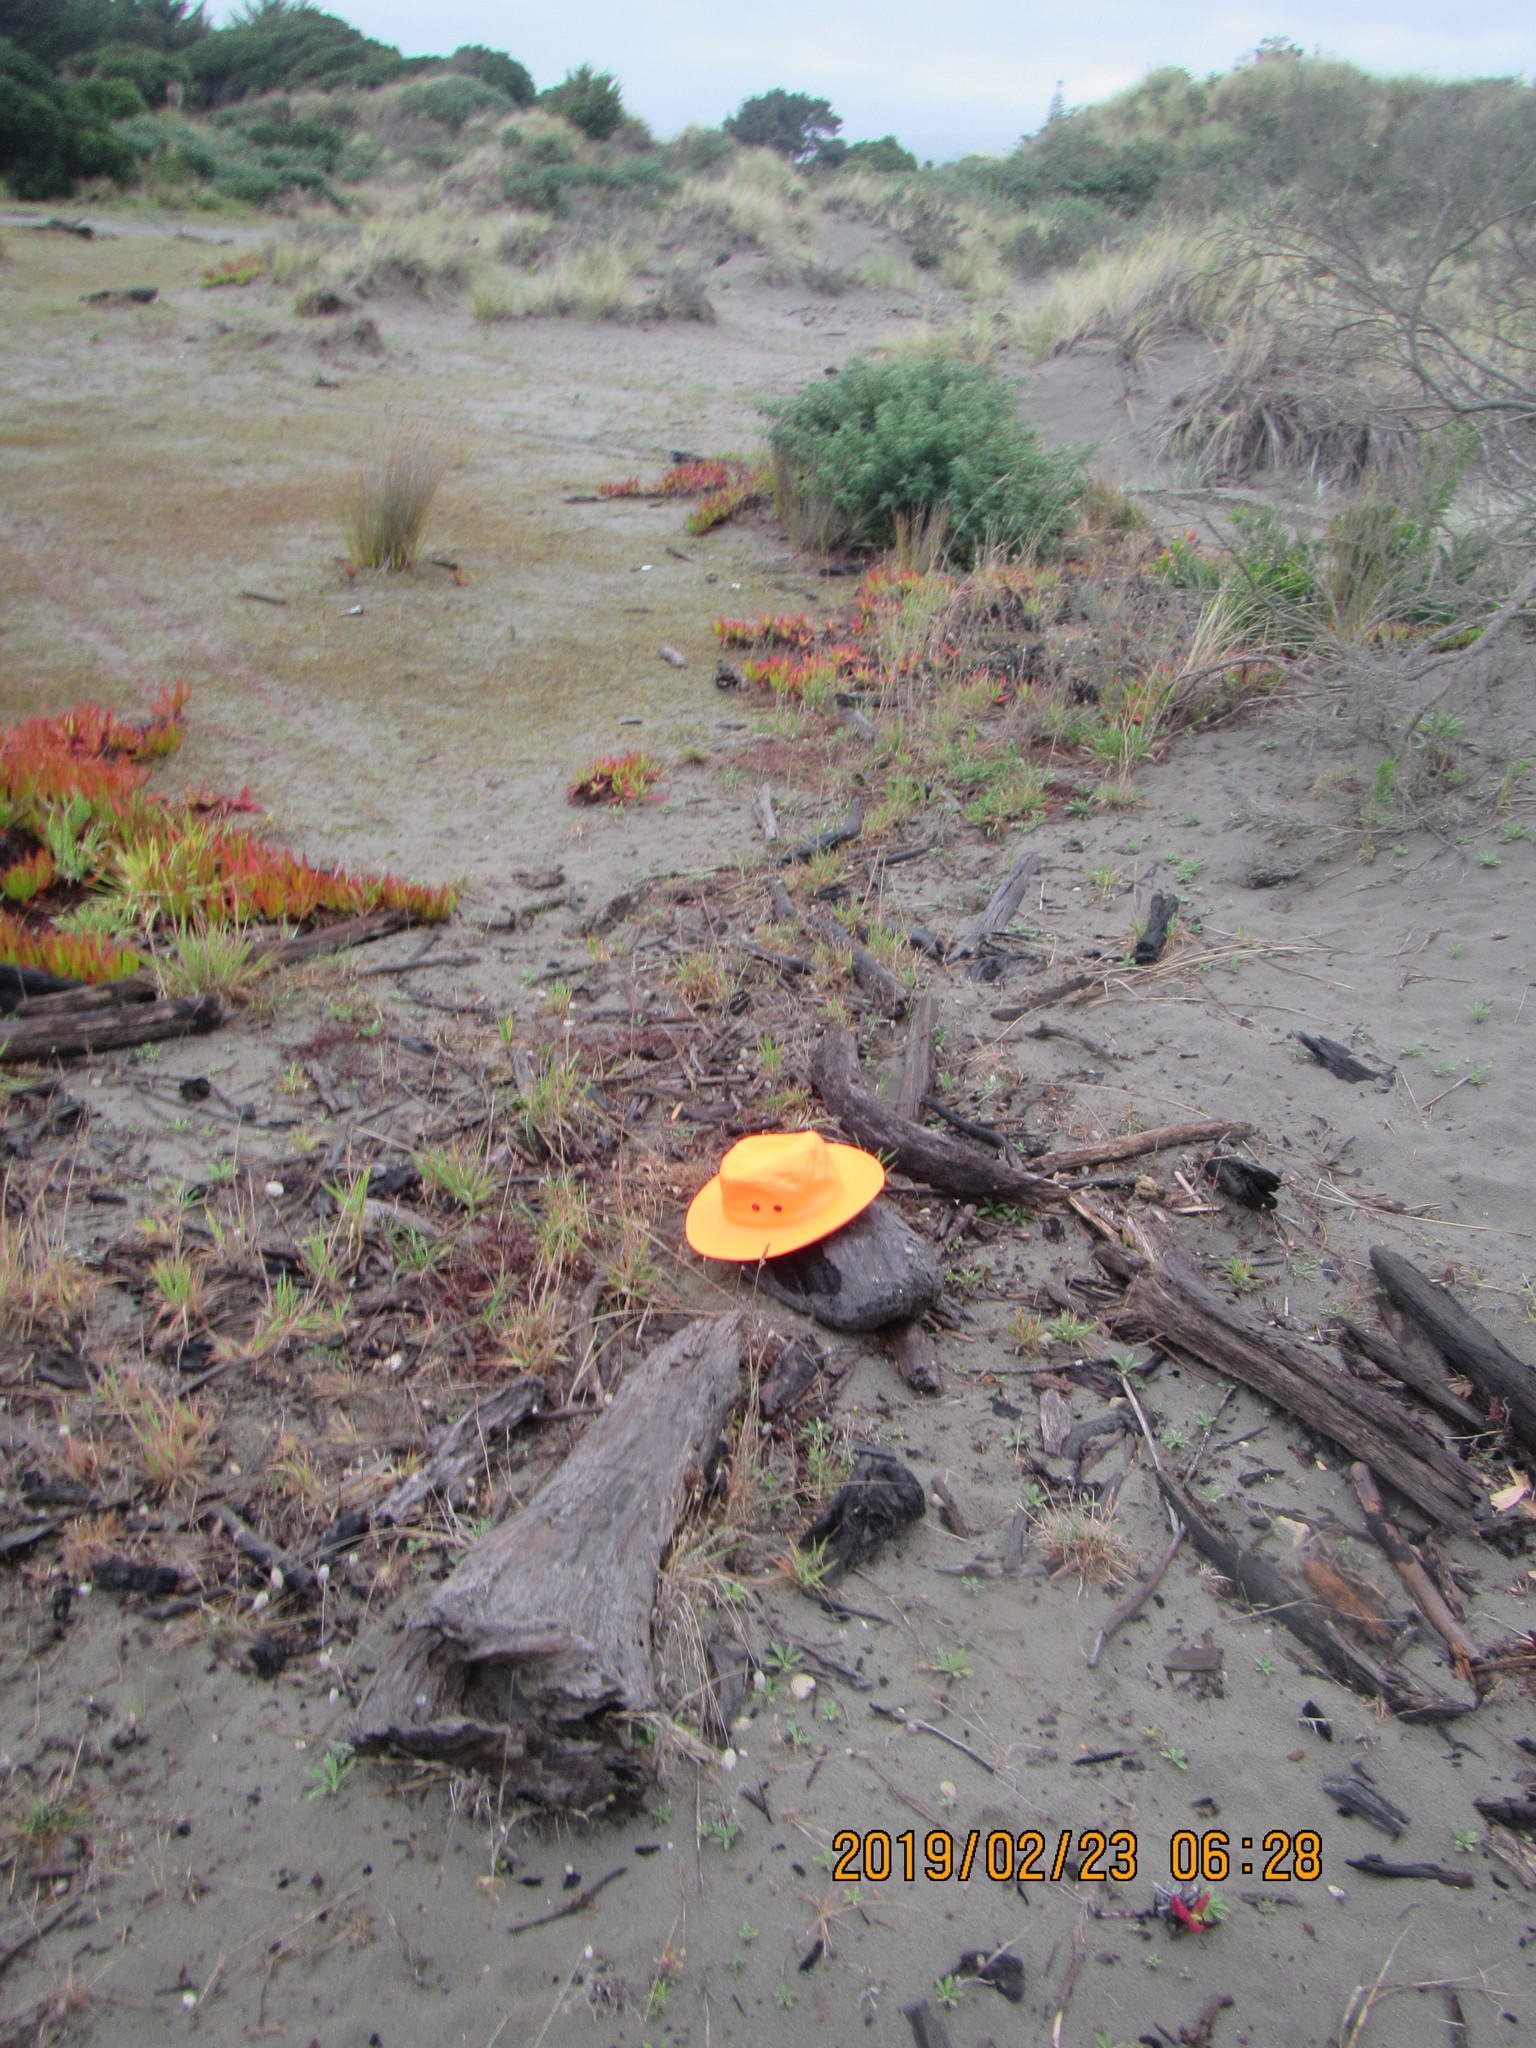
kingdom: Animalia
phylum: Arthropoda
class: Arachnida
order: Araneae
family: Theridiidae
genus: Steatoda
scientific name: Steatoda capensis
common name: Cobweb weaver
